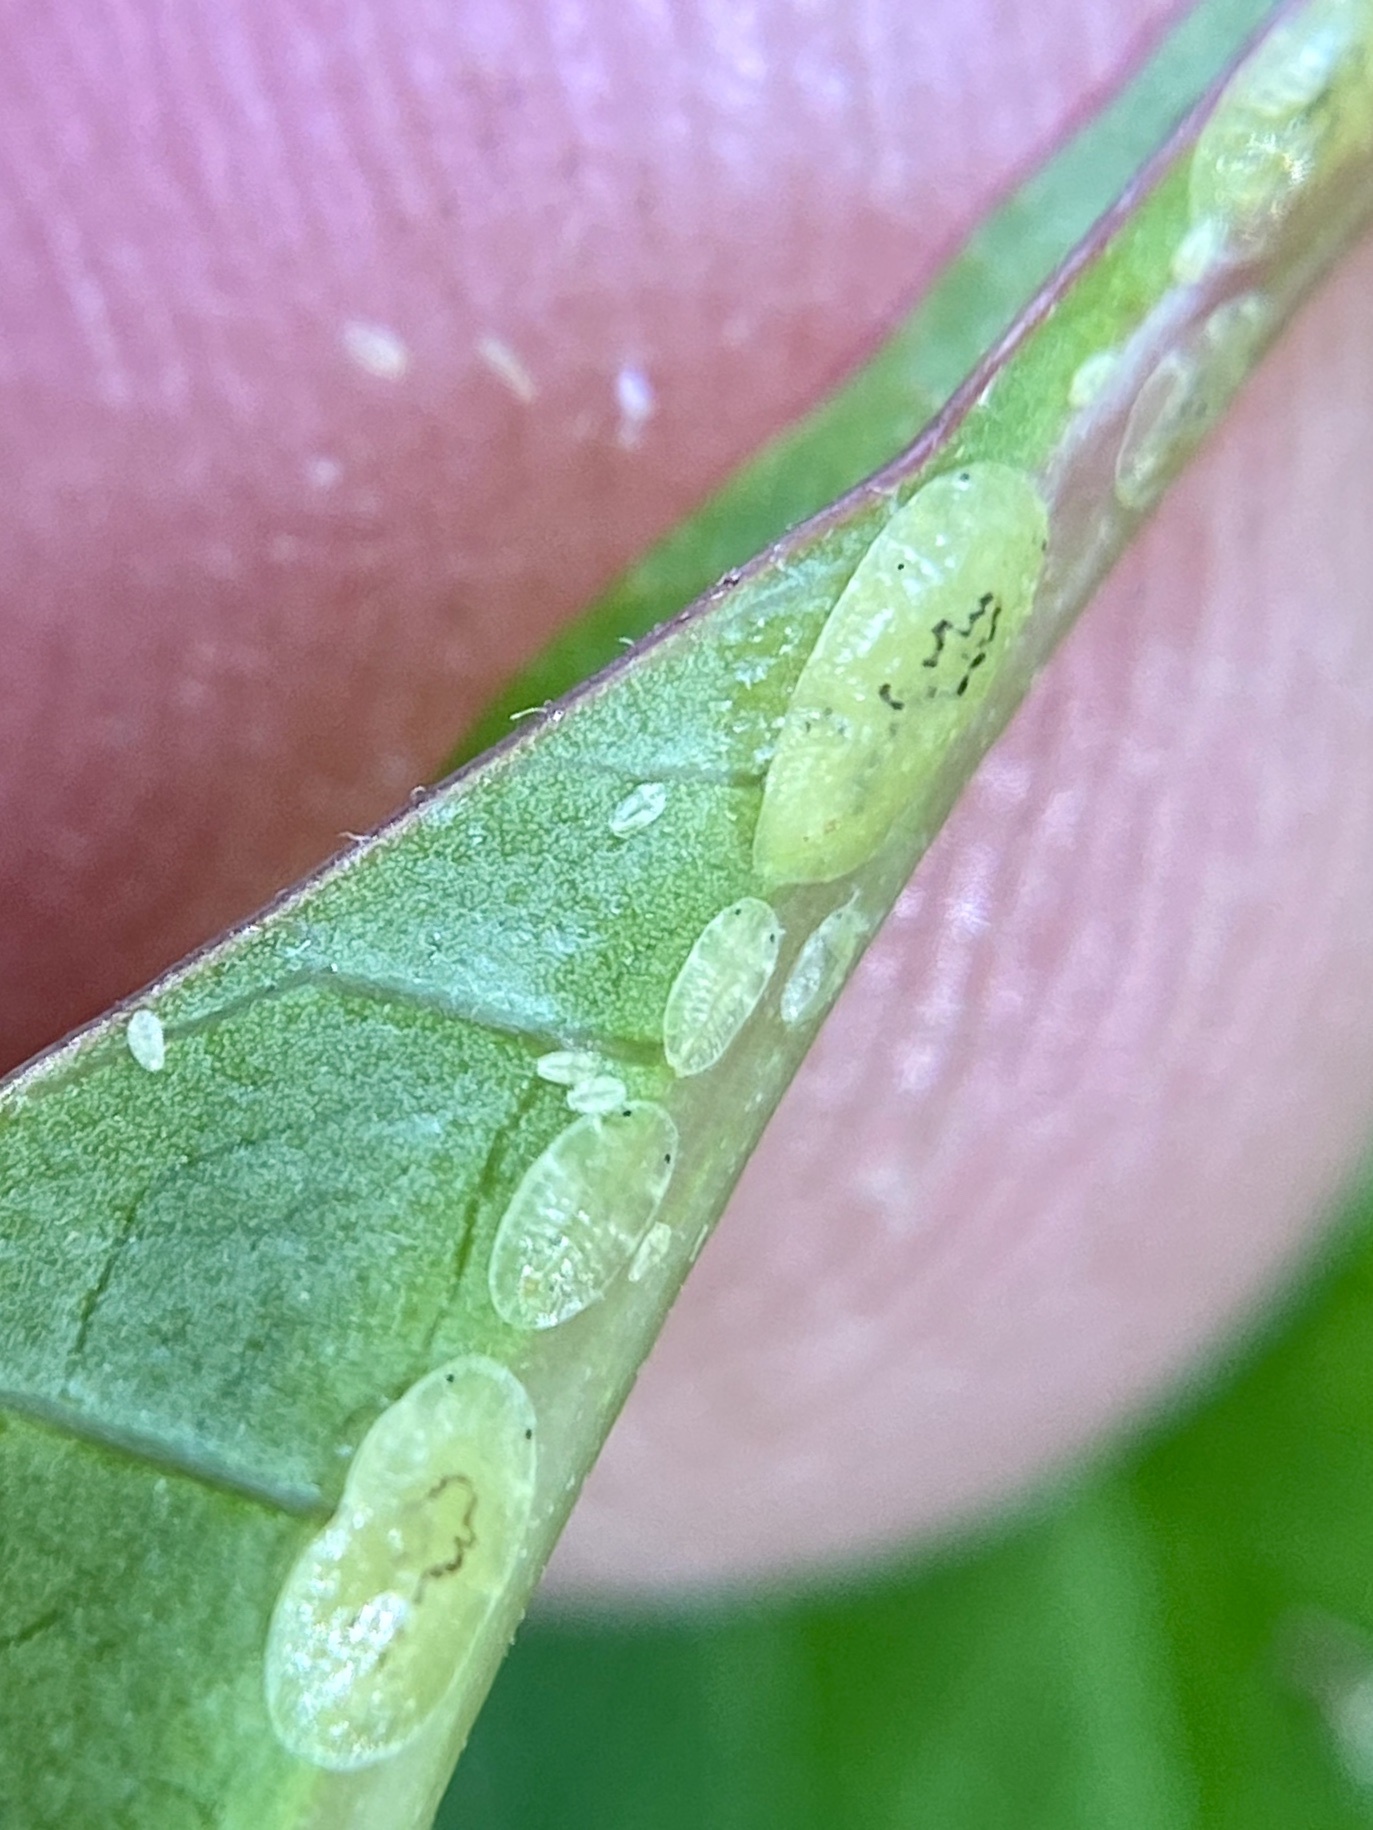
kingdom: Animalia
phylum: Arthropoda
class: Insecta
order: Hemiptera
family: Coccidae
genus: Coccus
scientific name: Coccus viridis
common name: Green scale
